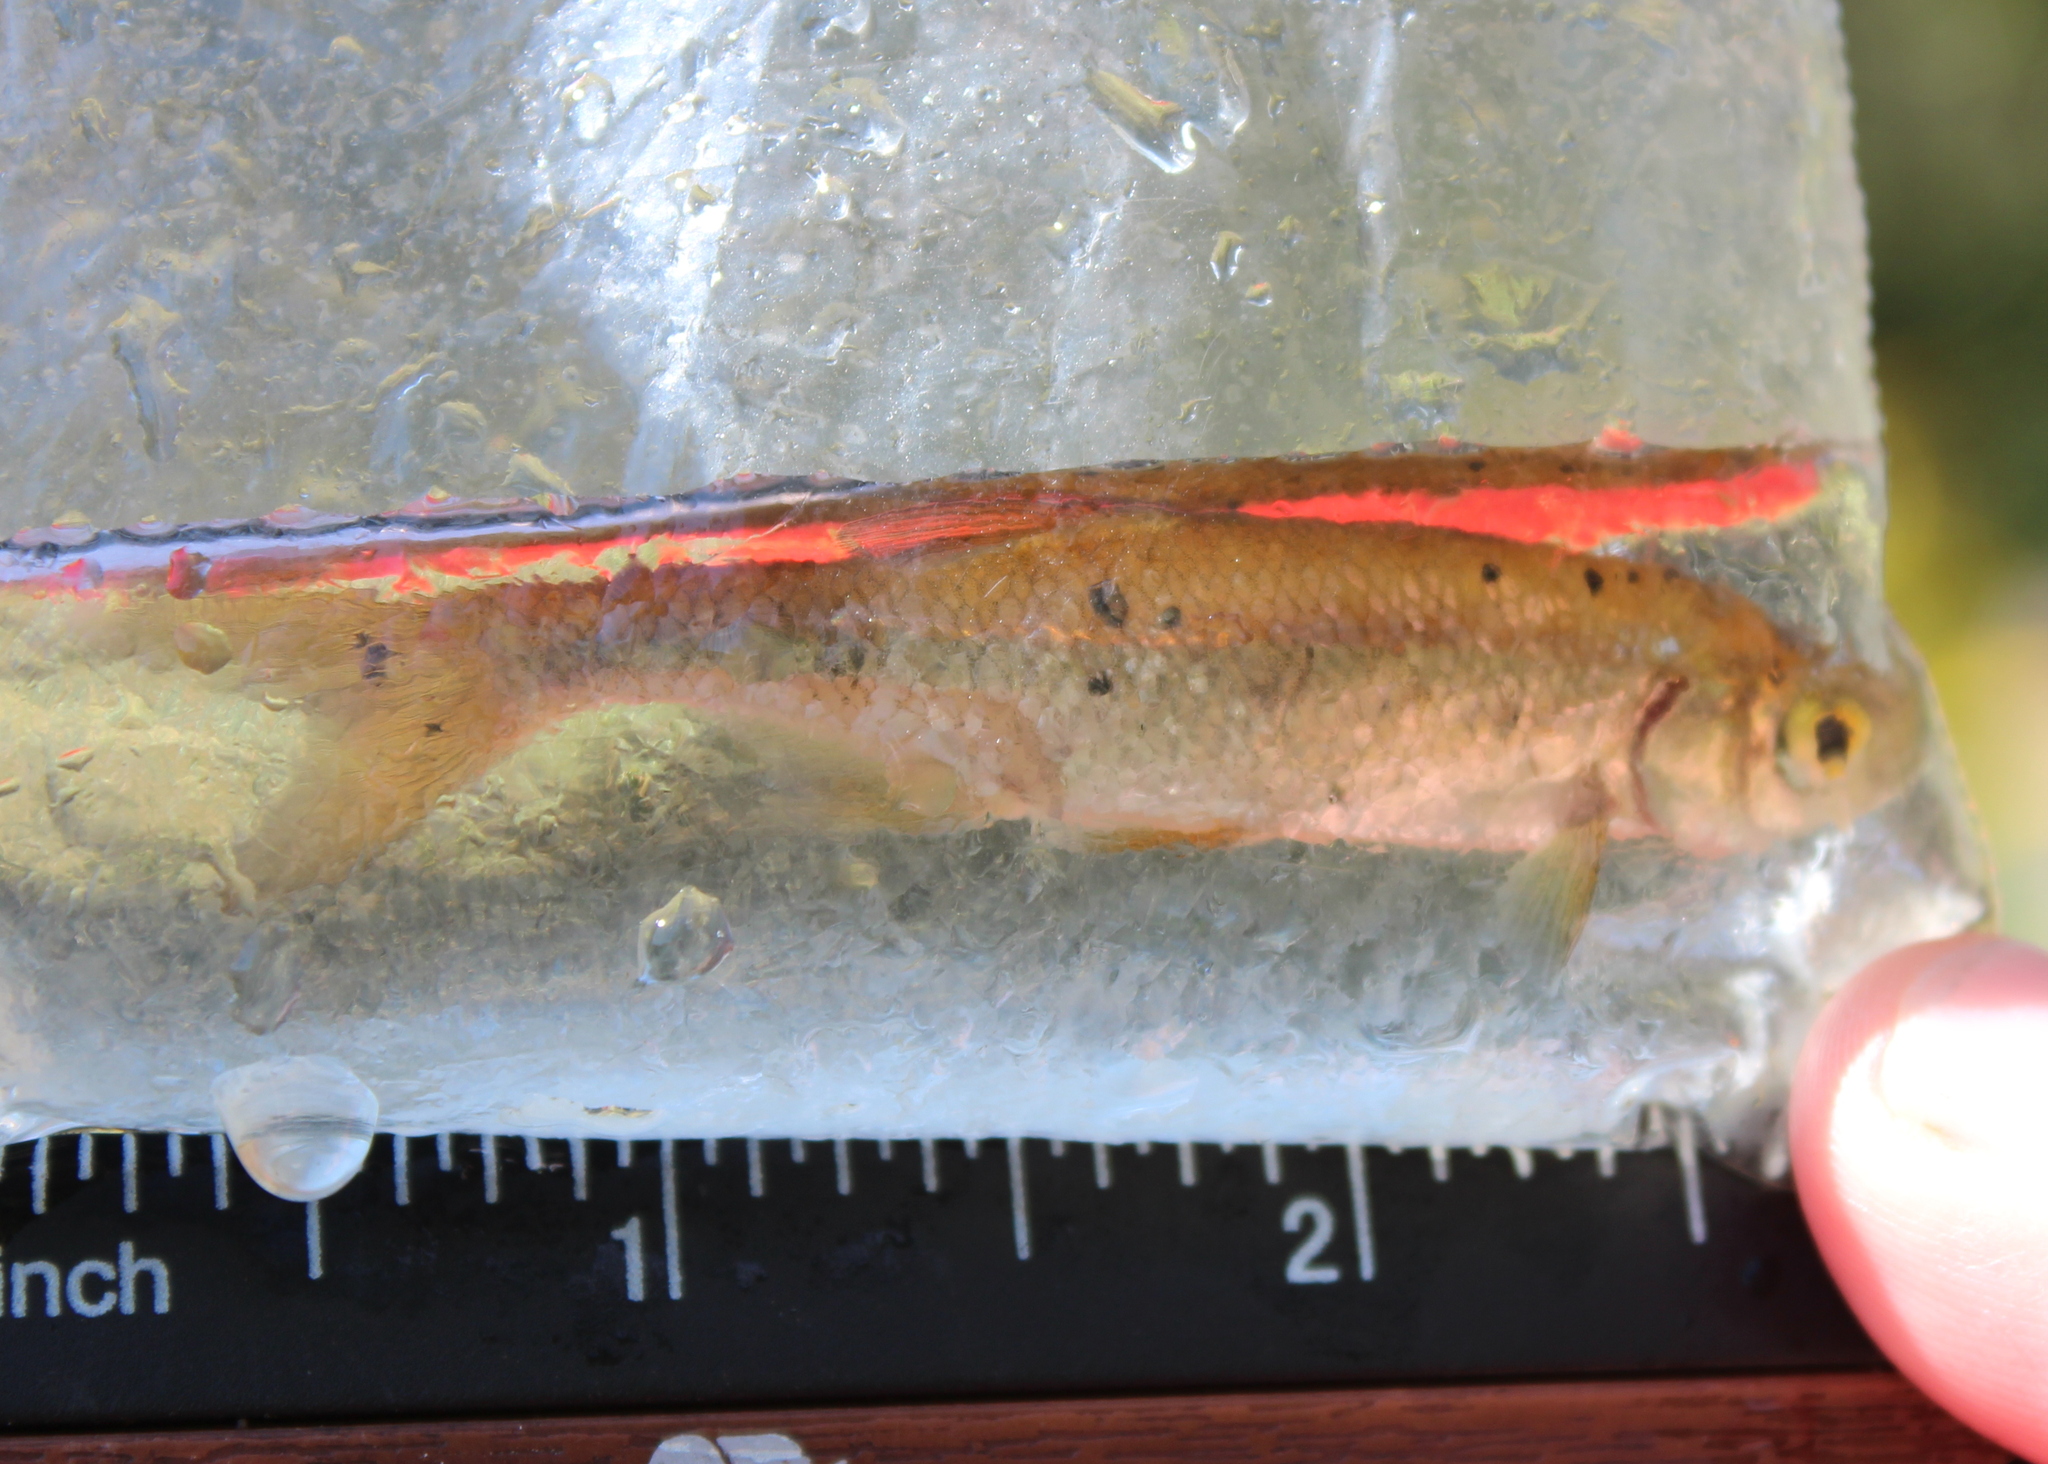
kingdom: Animalia
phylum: Chordata
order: Cypriniformes
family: Cyprinidae
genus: Luxilus
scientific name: Luxilus cornutus
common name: Common shiner
